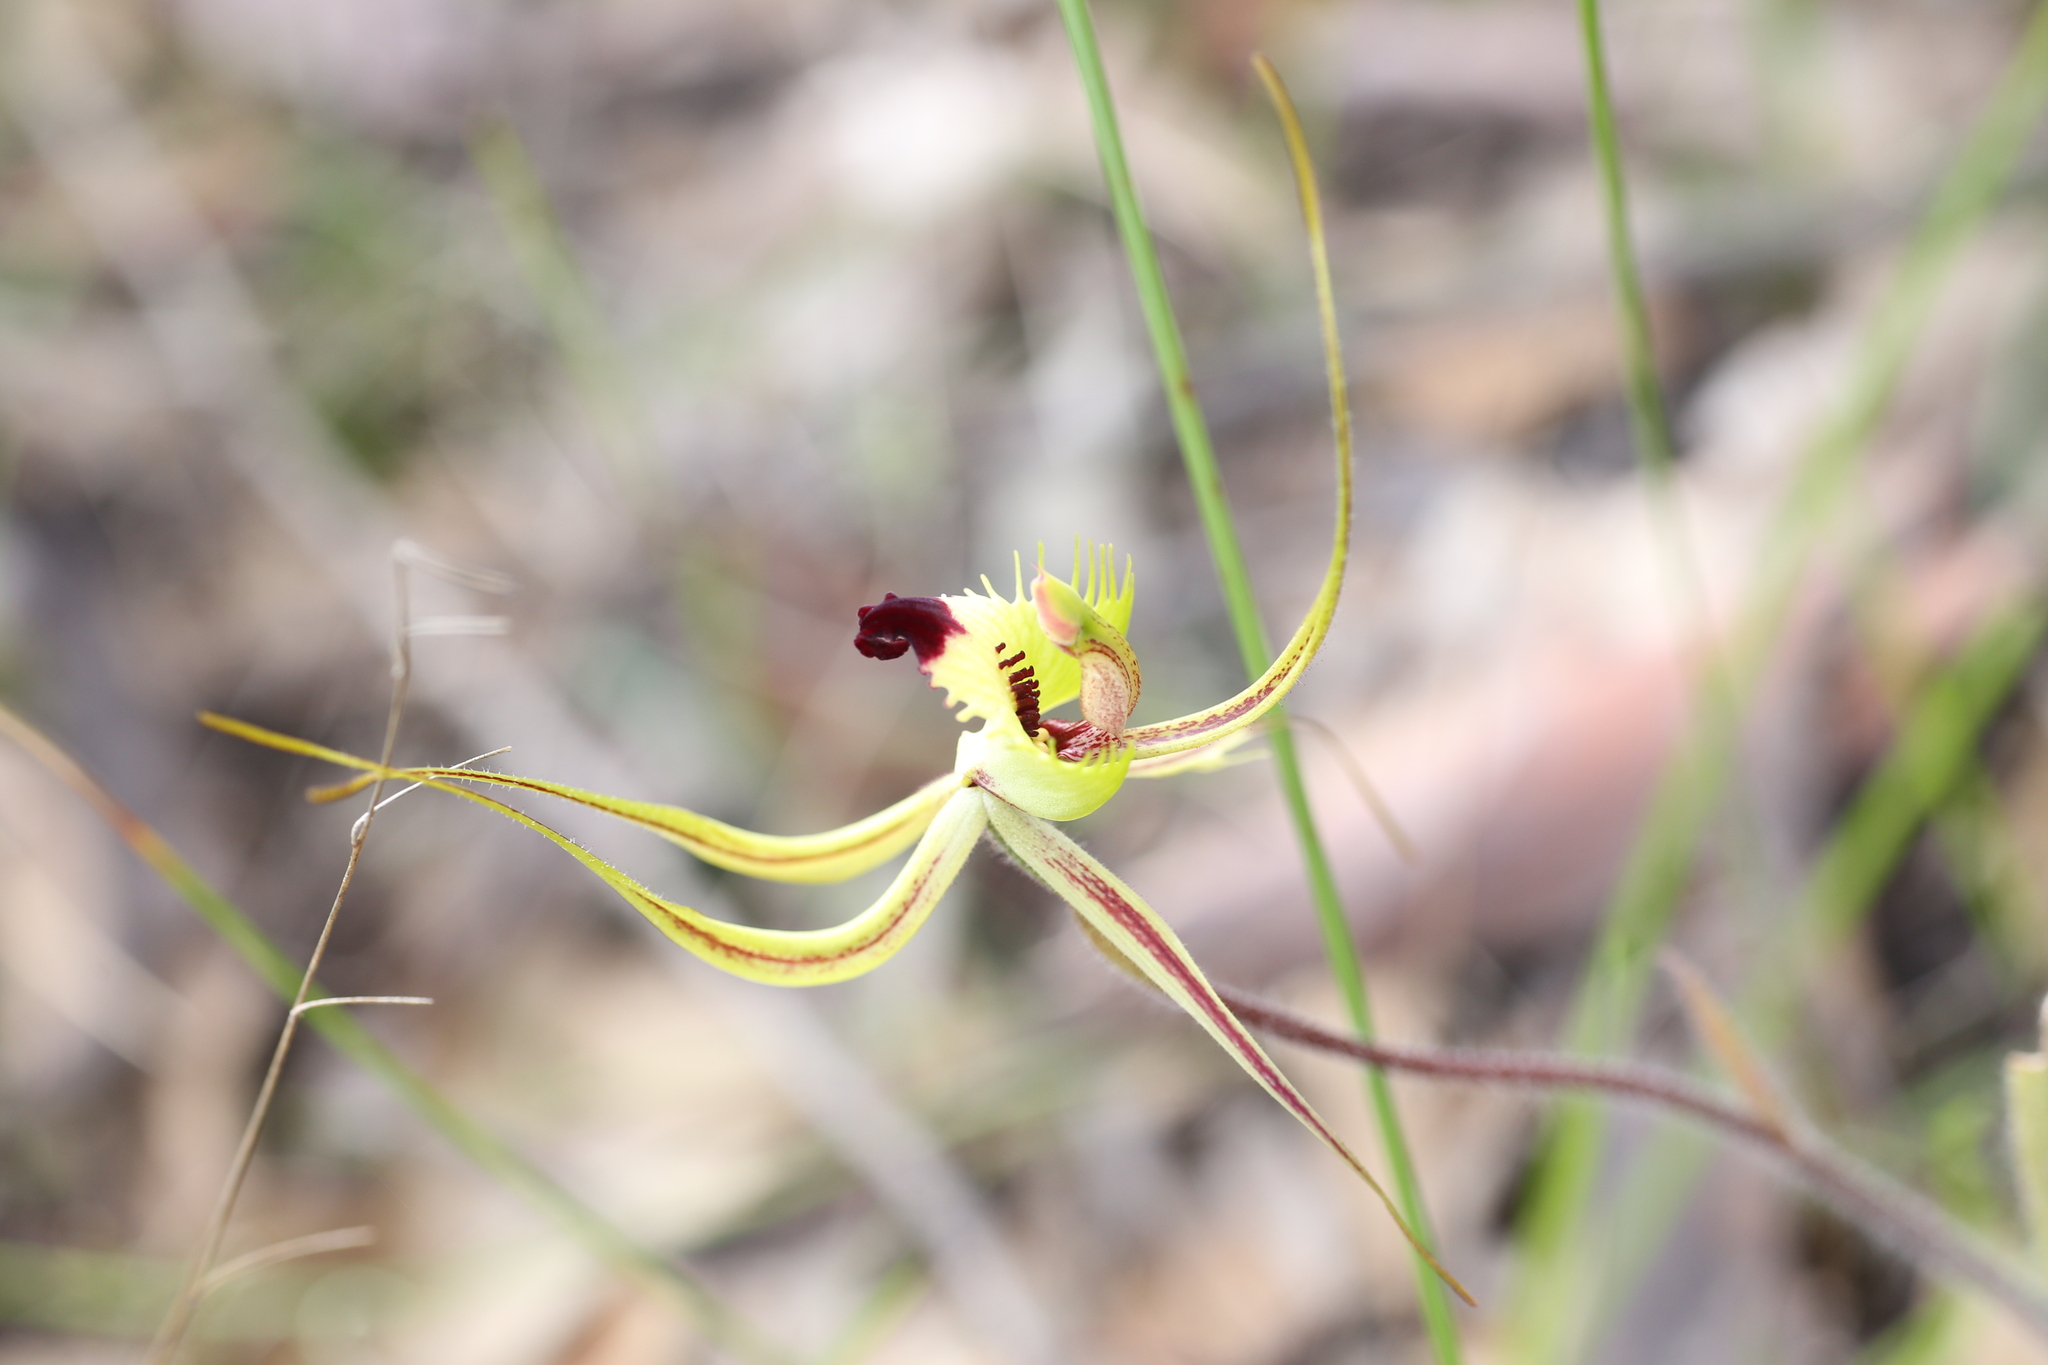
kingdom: Plantae
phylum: Tracheophyta
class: Liliopsida
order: Asparagales
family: Orchidaceae
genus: Caladenia
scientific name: Caladenia falcata
